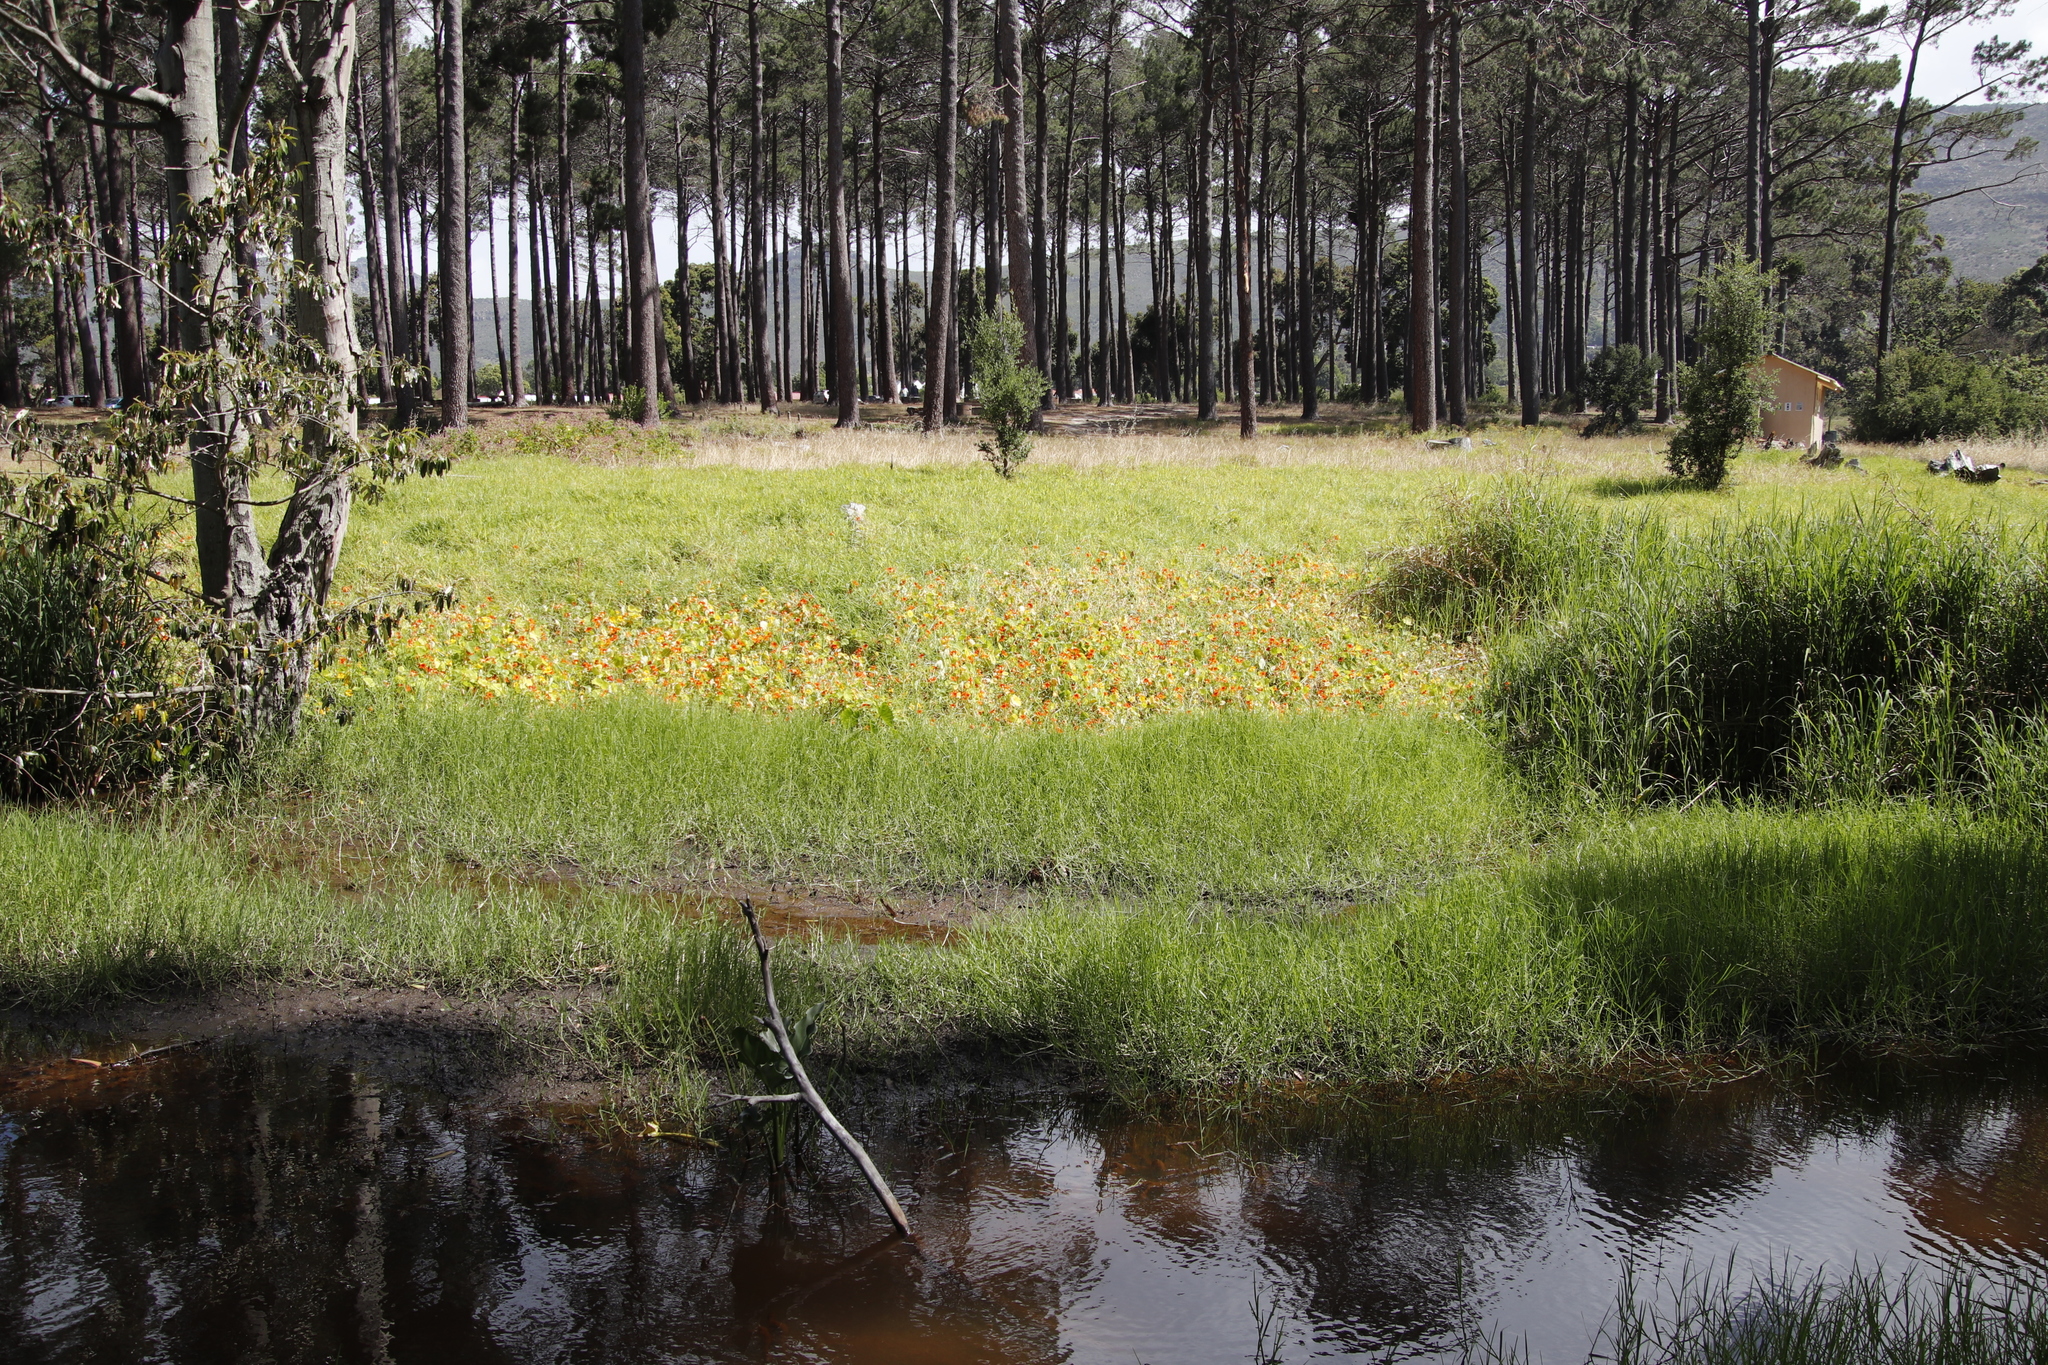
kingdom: Plantae
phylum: Tracheophyta
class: Magnoliopsida
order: Brassicales
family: Tropaeolaceae
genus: Tropaeolum
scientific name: Tropaeolum majus
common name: Nasturtium
